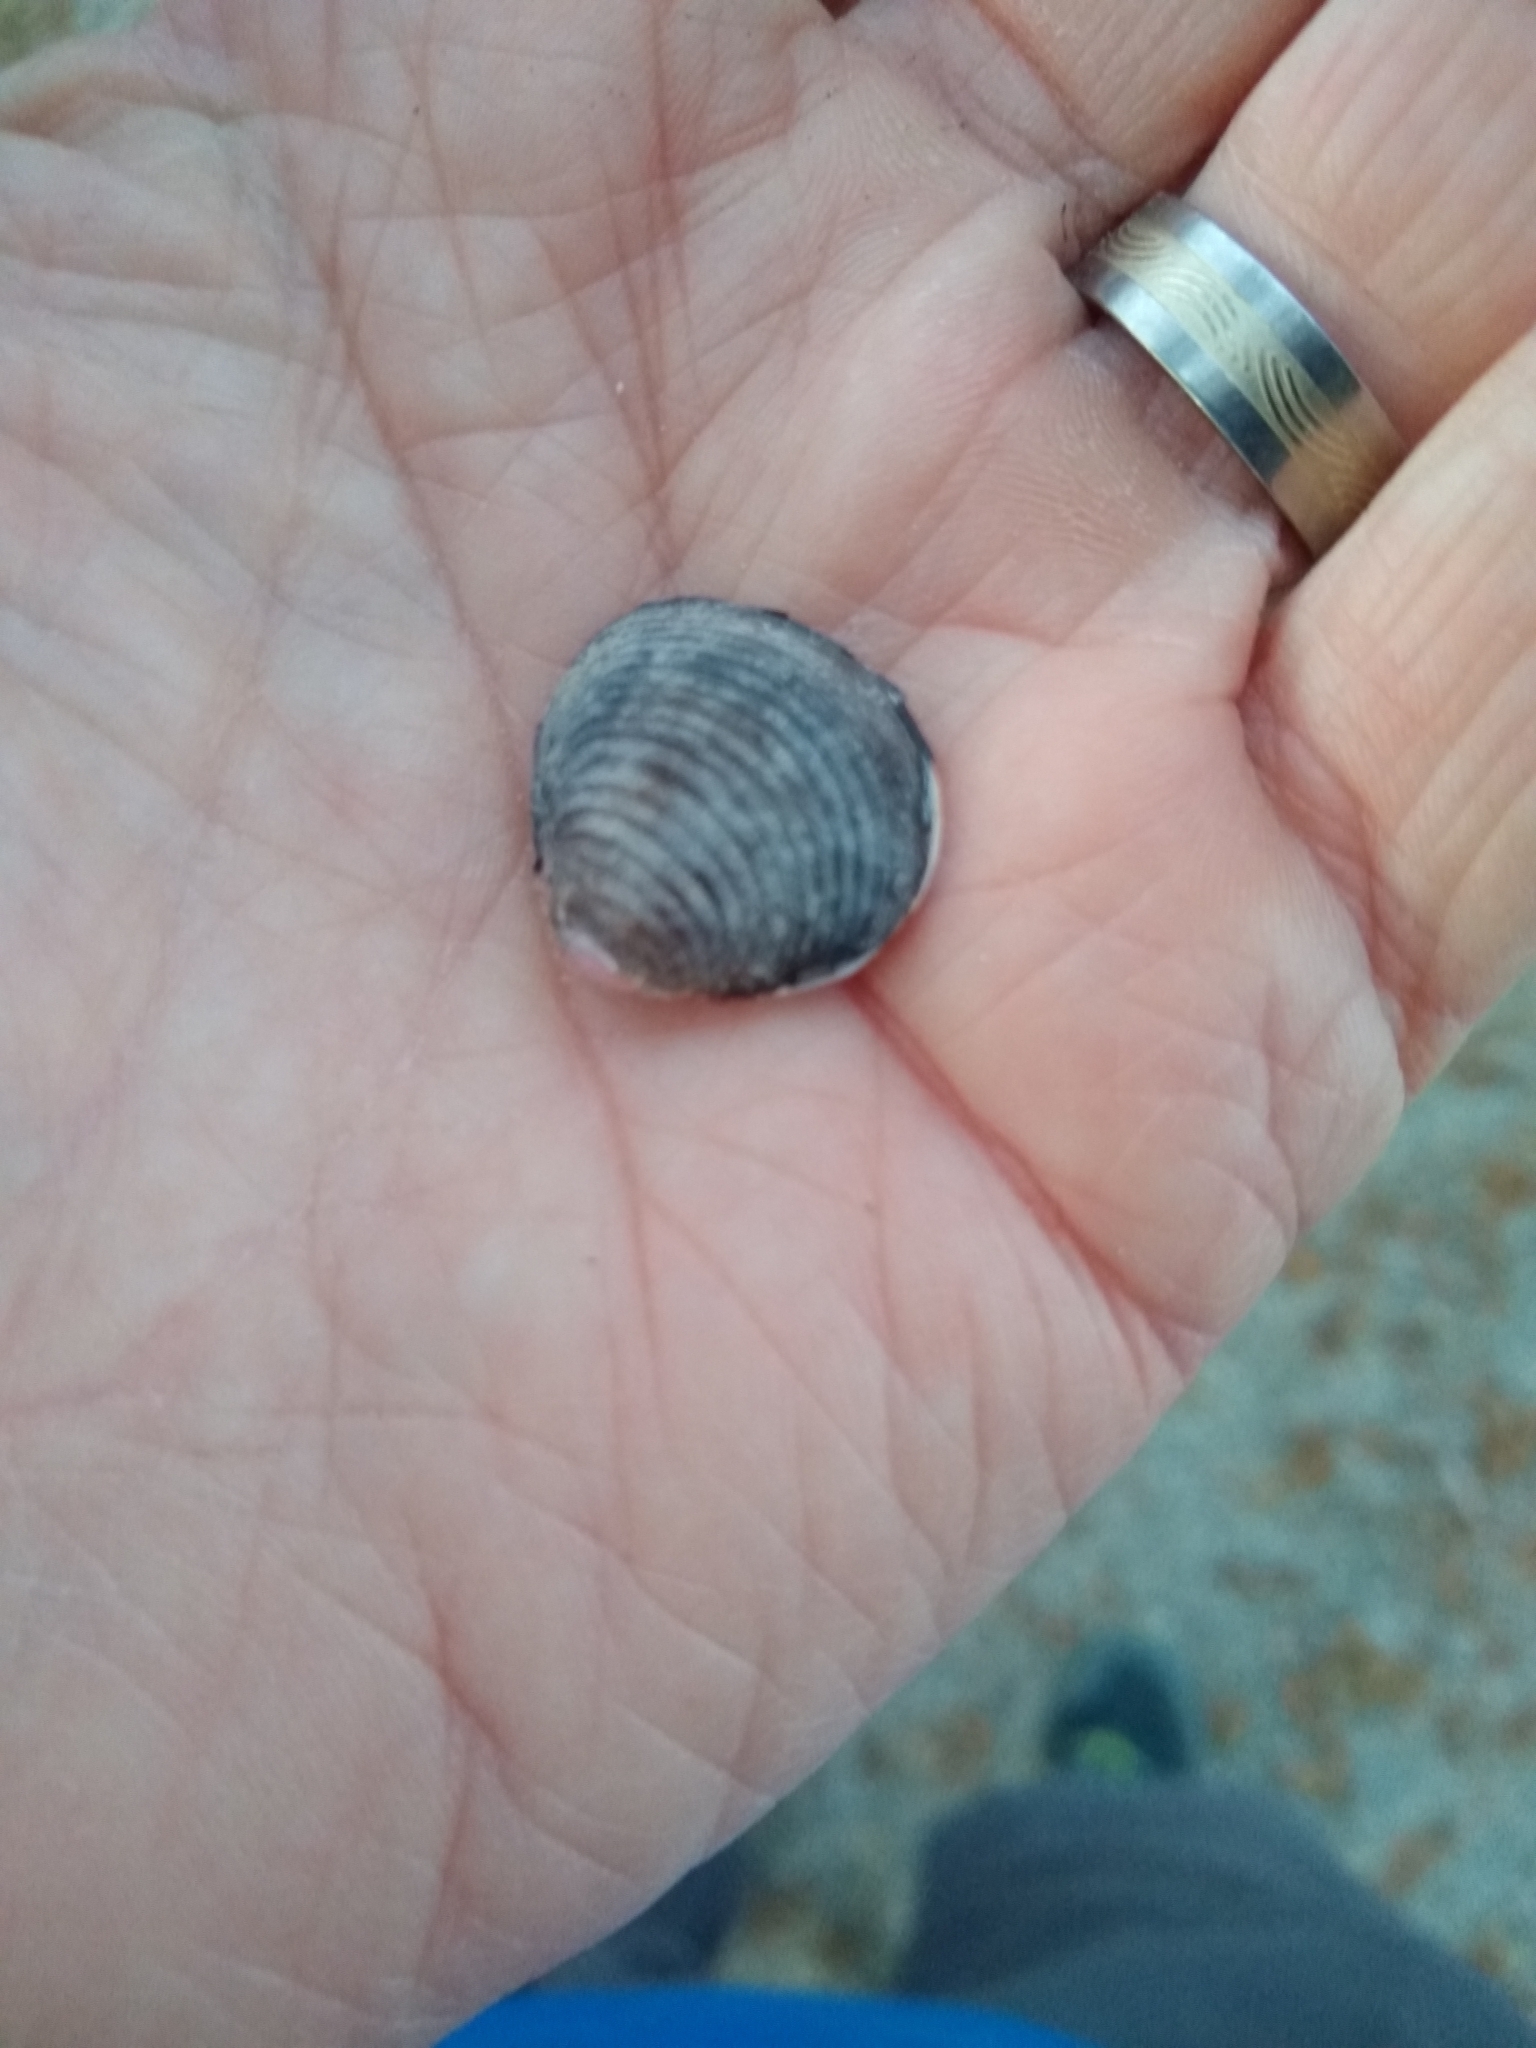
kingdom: Animalia
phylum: Mollusca
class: Bivalvia
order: Venerida
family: Cyrenidae
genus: Corbicula
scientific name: Corbicula fluminea
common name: Asian clam
